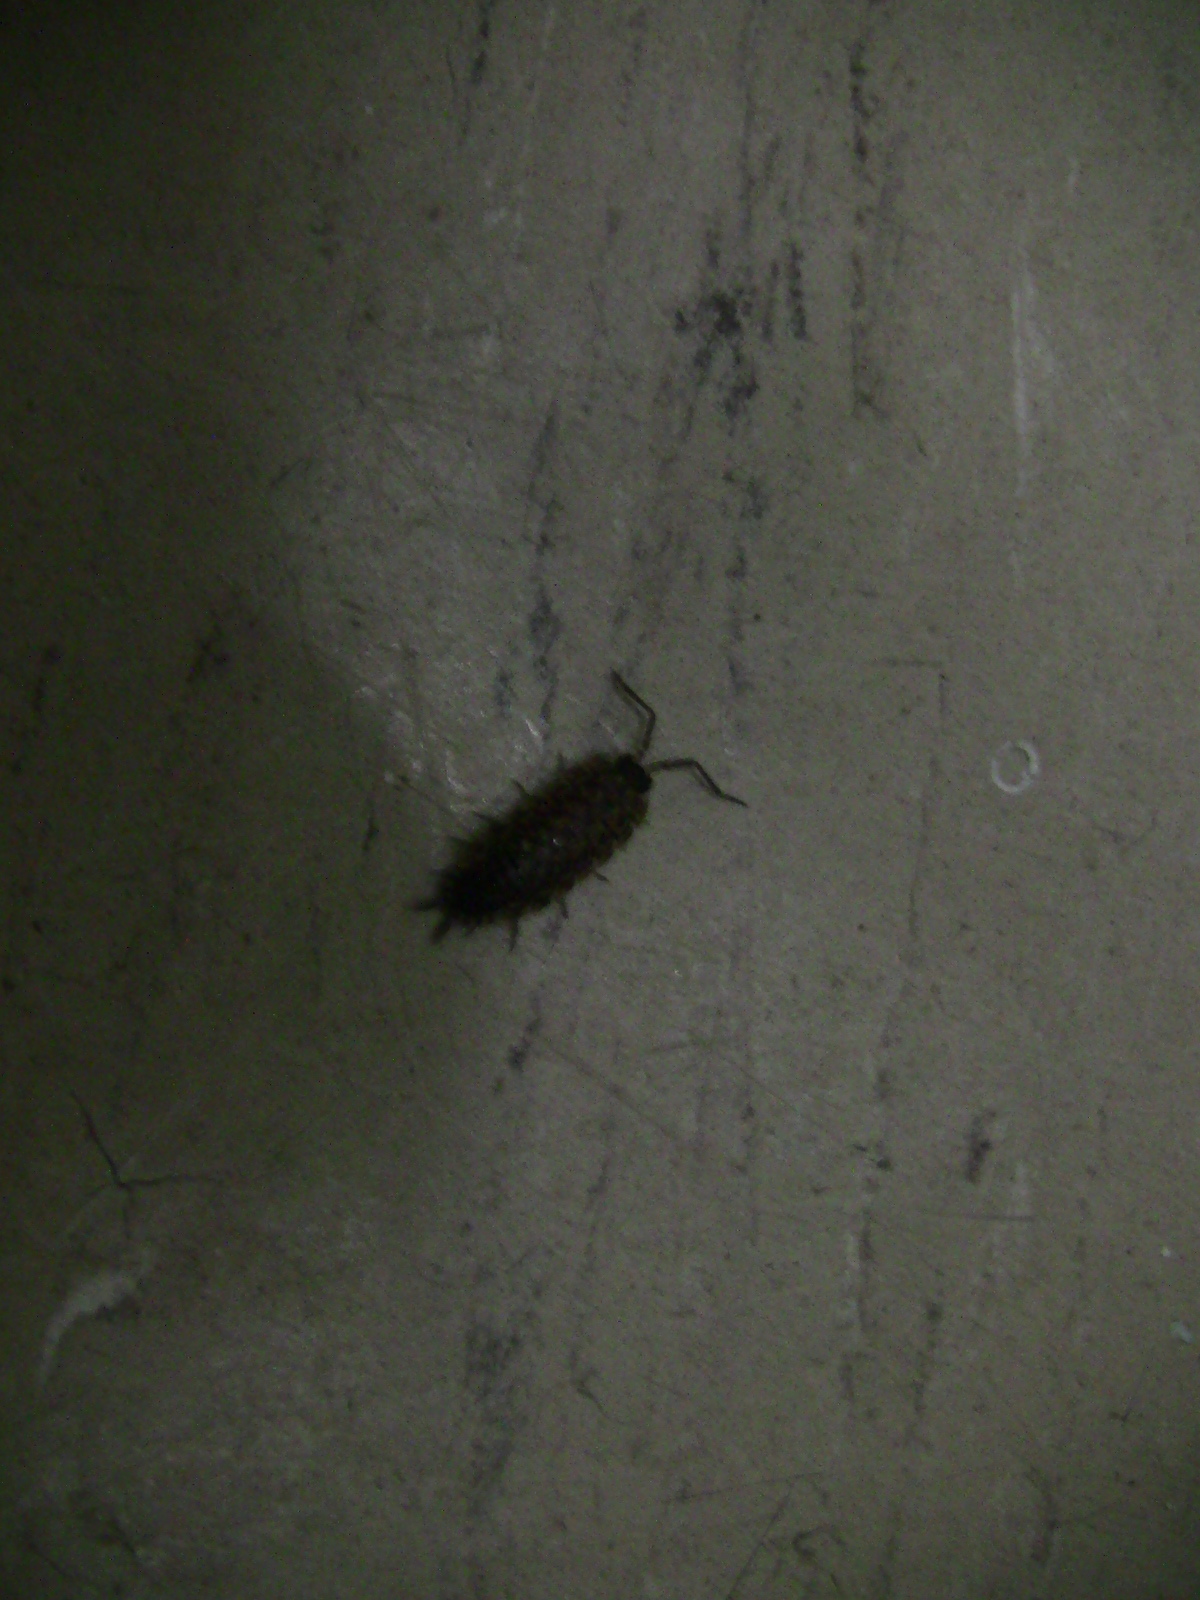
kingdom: Animalia
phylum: Arthropoda
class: Malacostraca
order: Isopoda
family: Porcellionidae
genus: Porcellio
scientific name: Porcellio spinicornis
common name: Painted woodlouse
